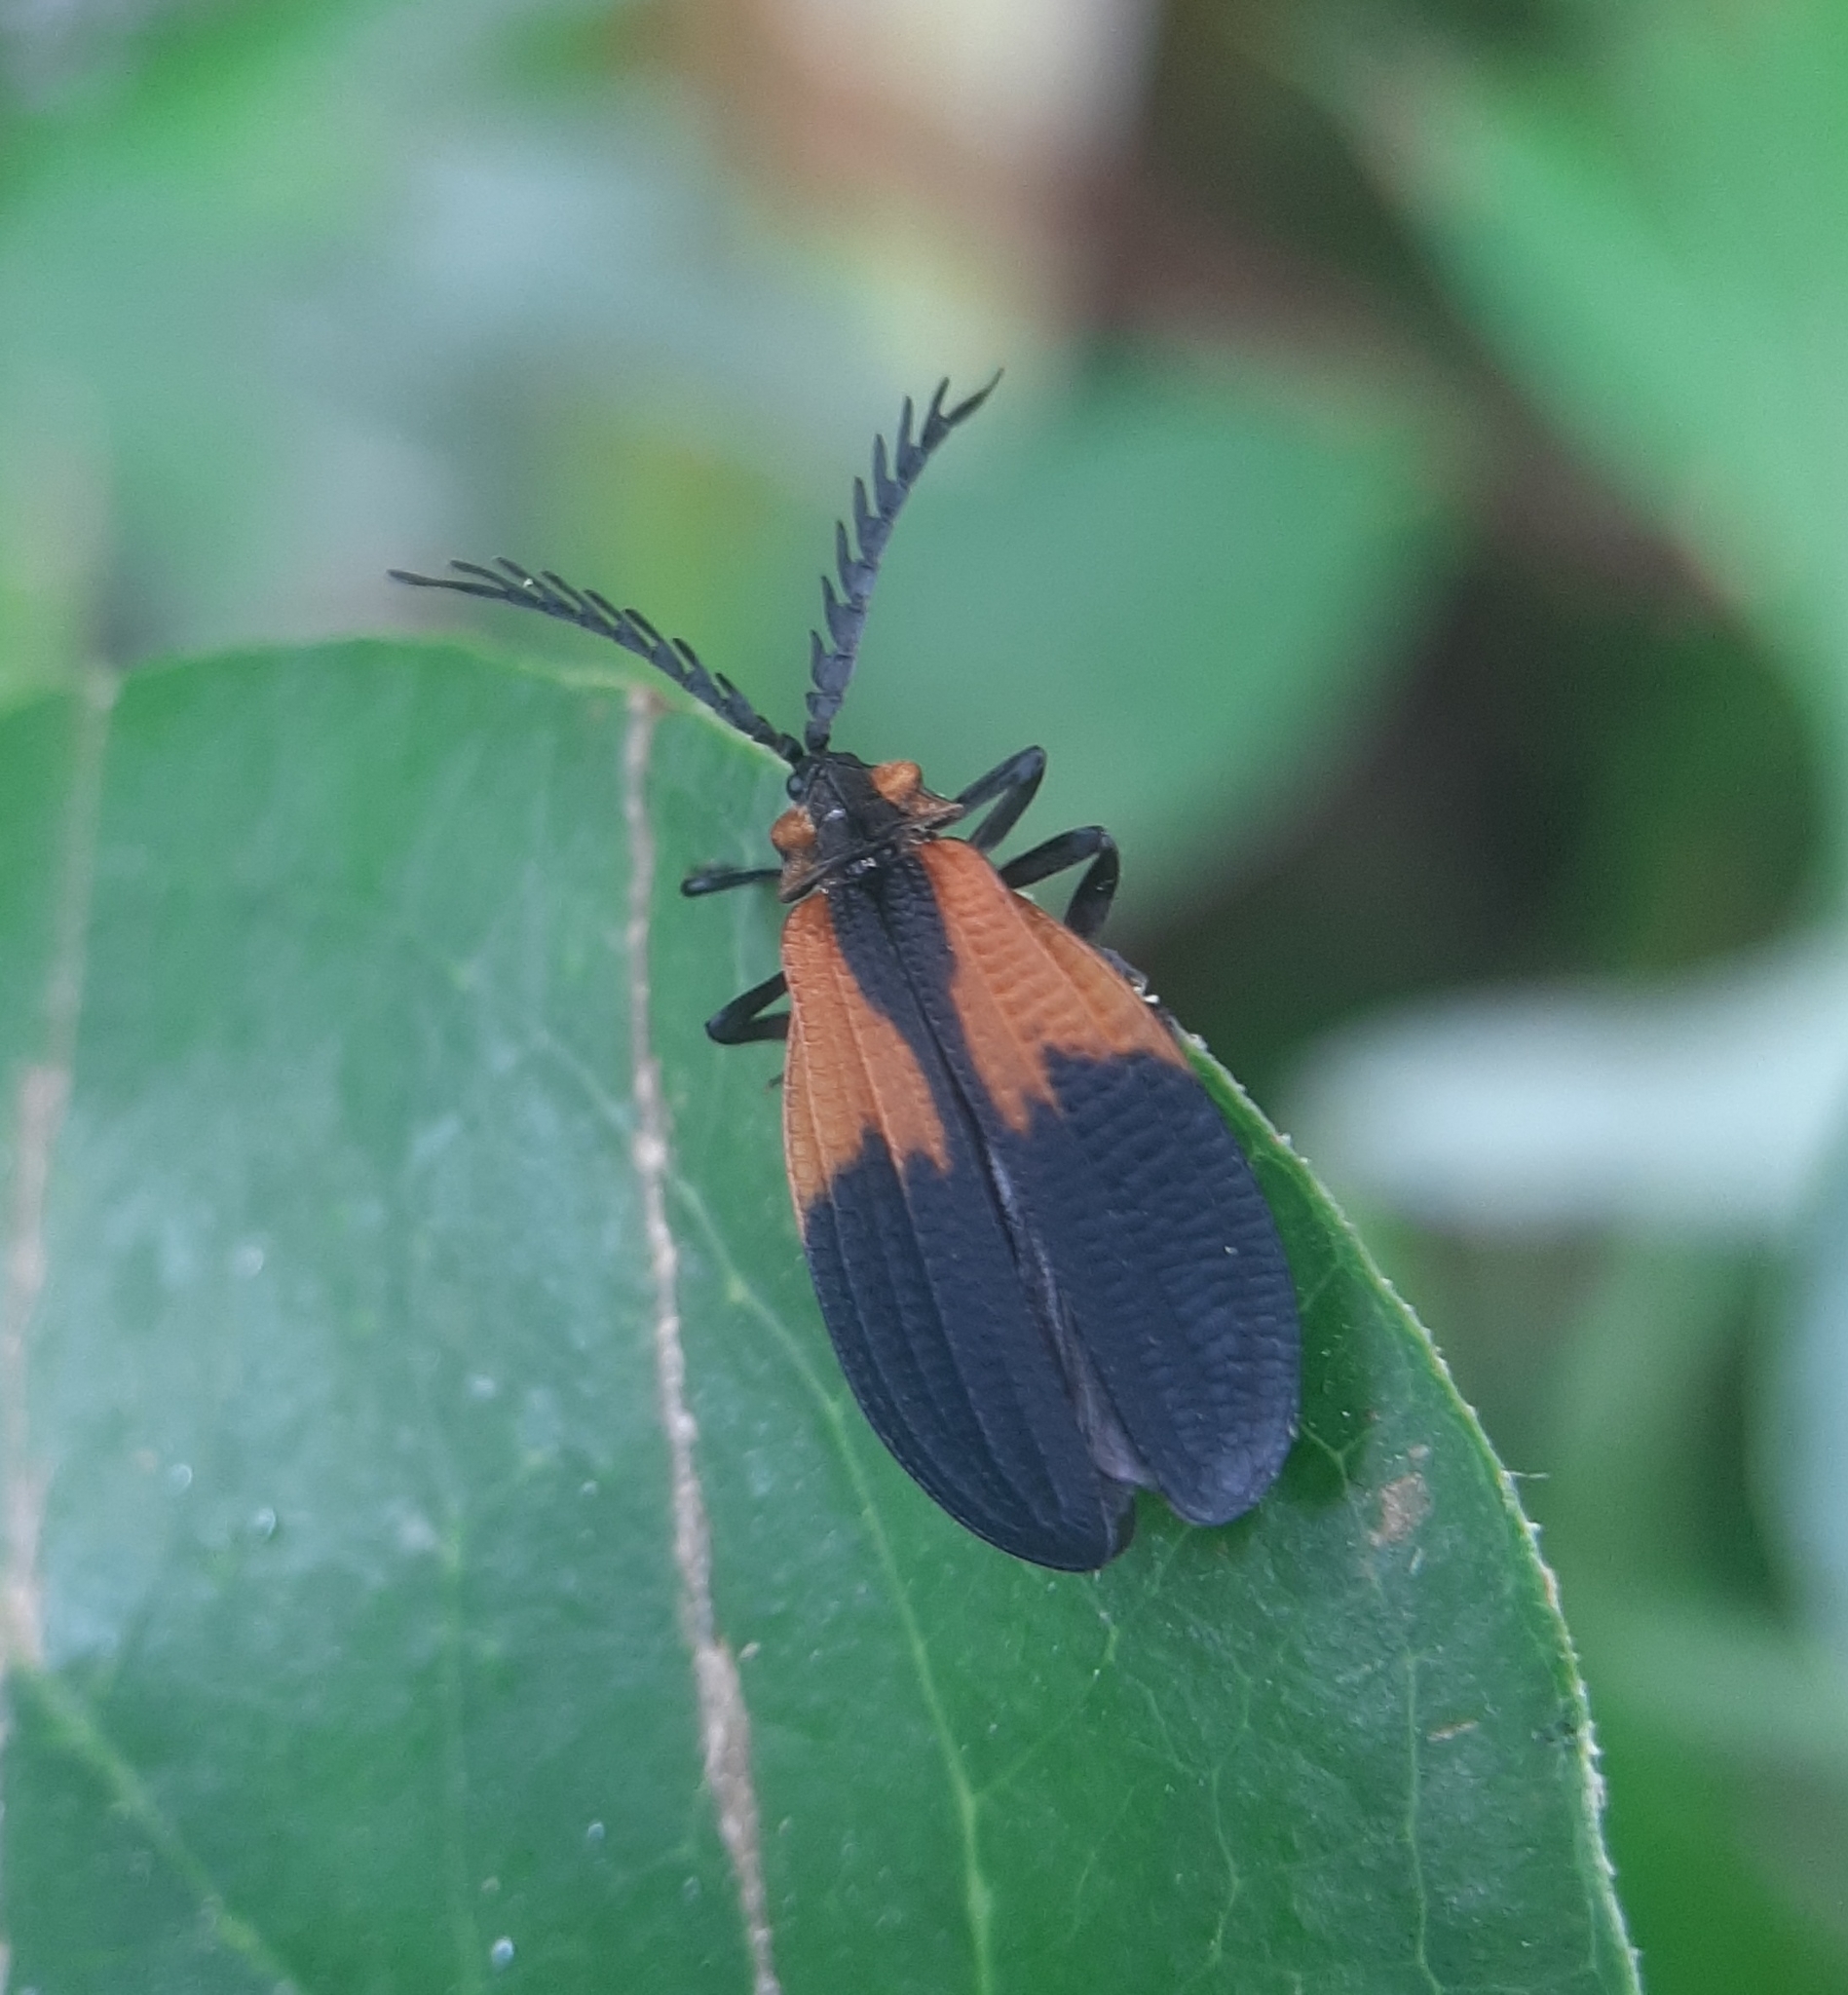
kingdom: Animalia
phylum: Arthropoda
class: Insecta
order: Coleoptera
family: Lycidae
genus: Caenia
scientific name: Caenia dimidiata
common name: Terminal net-winged beetle
